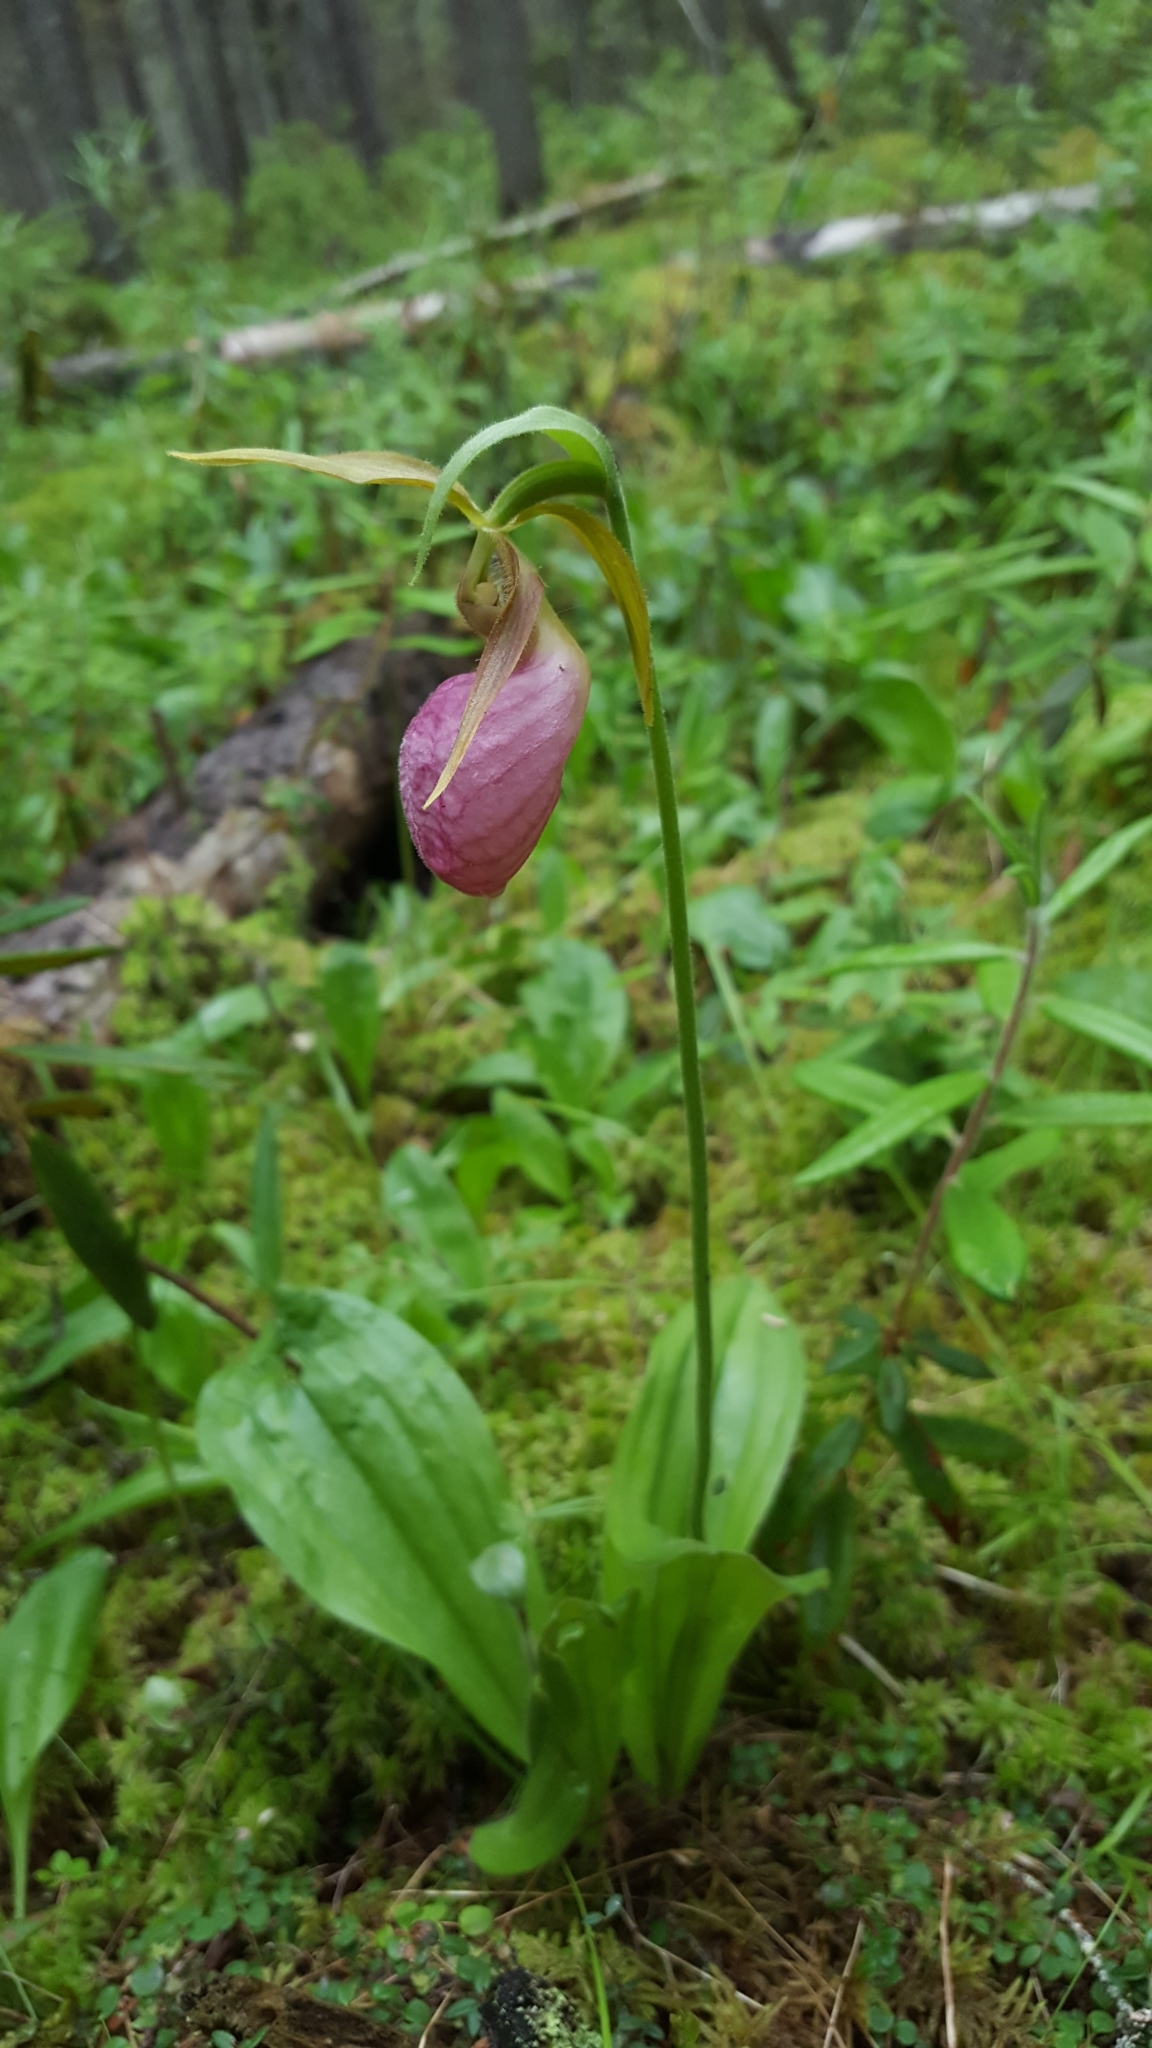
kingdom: Plantae
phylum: Tracheophyta
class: Liliopsida
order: Asparagales
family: Orchidaceae
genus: Cypripedium
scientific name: Cypripedium acaule
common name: Pink lady's-slipper
